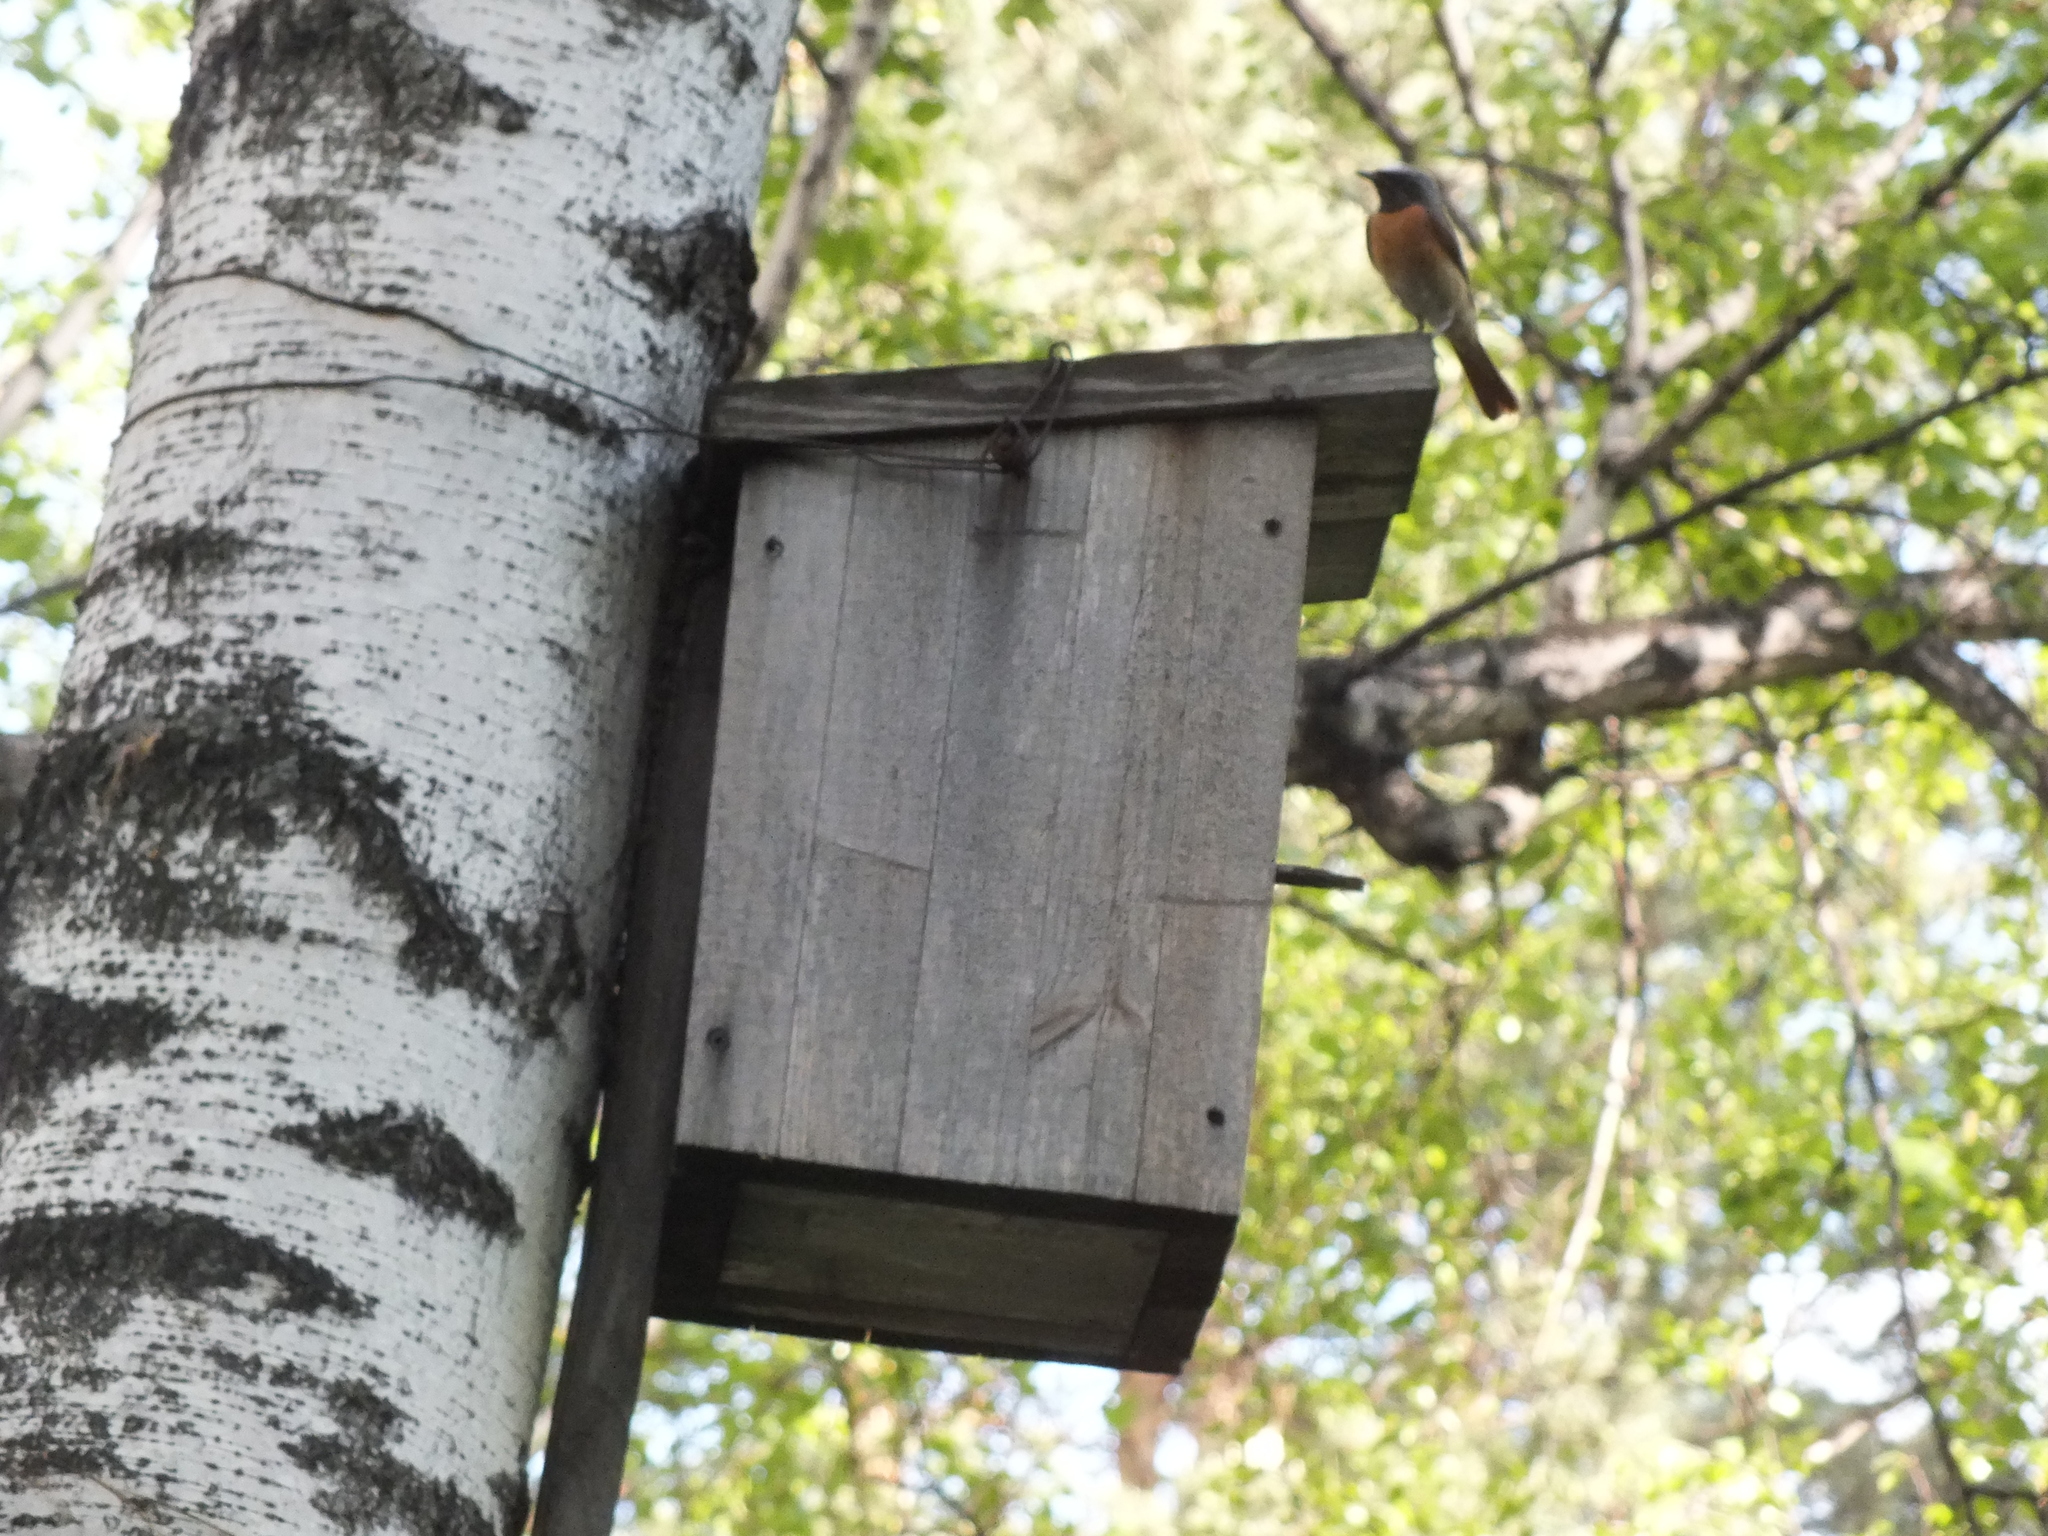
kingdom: Animalia
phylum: Chordata
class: Aves
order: Passeriformes
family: Muscicapidae
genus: Phoenicurus
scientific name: Phoenicurus phoenicurus
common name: Common redstart
